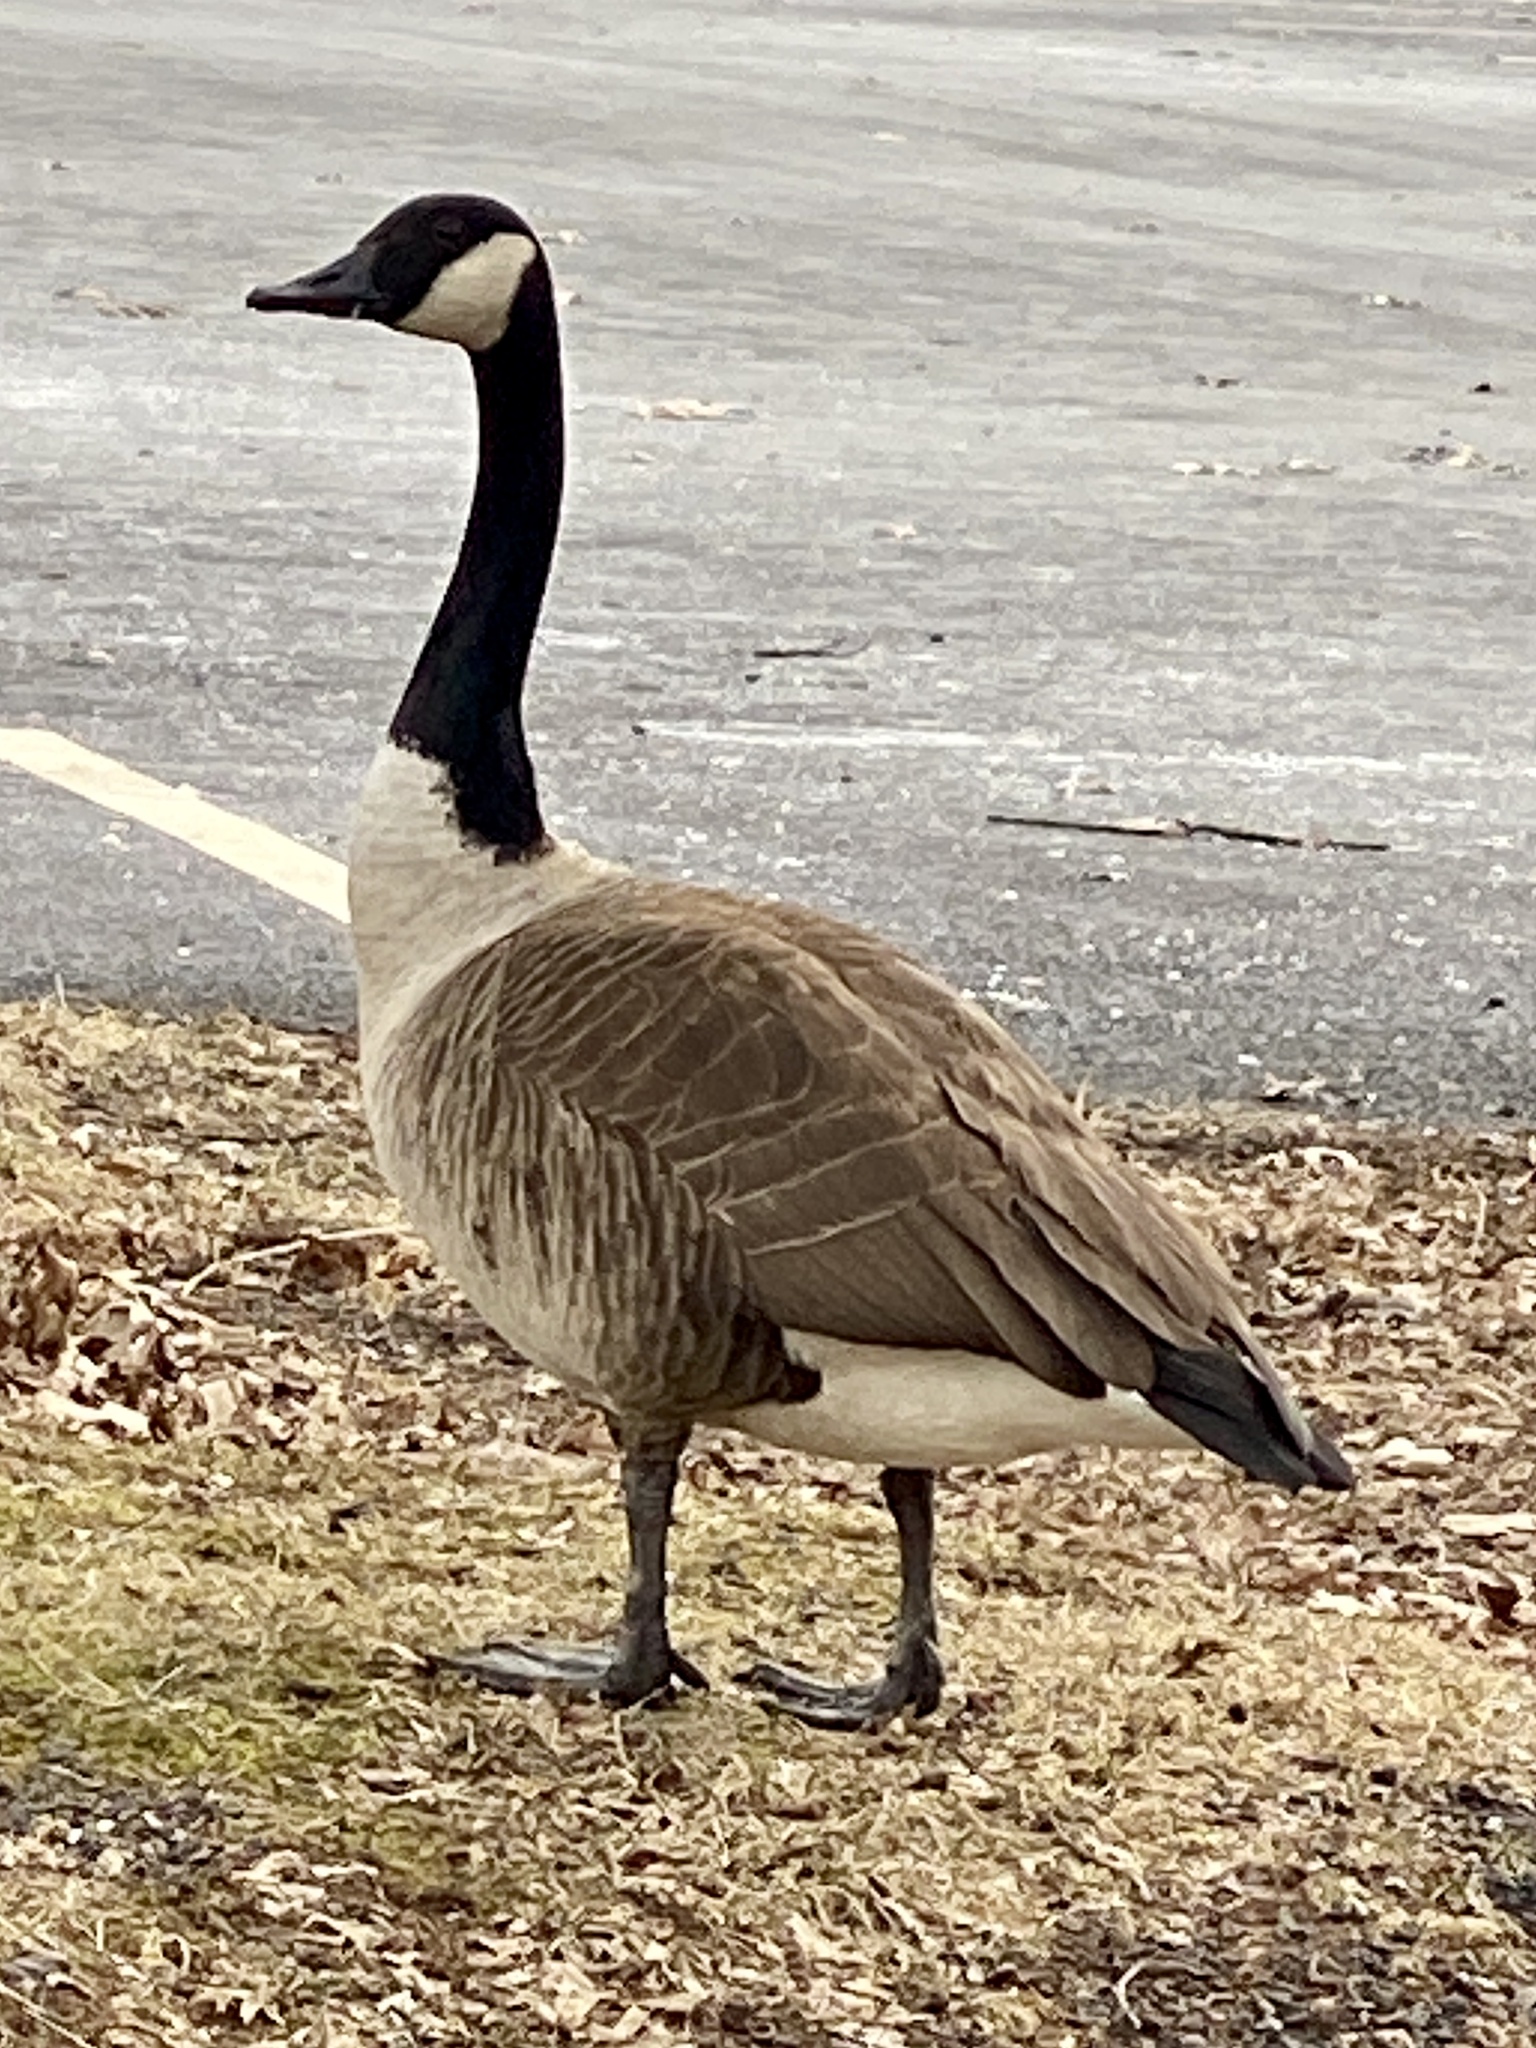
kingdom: Animalia
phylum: Chordata
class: Aves
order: Anseriformes
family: Anatidae
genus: Branta
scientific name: Branta canadensis
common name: Canada goose
